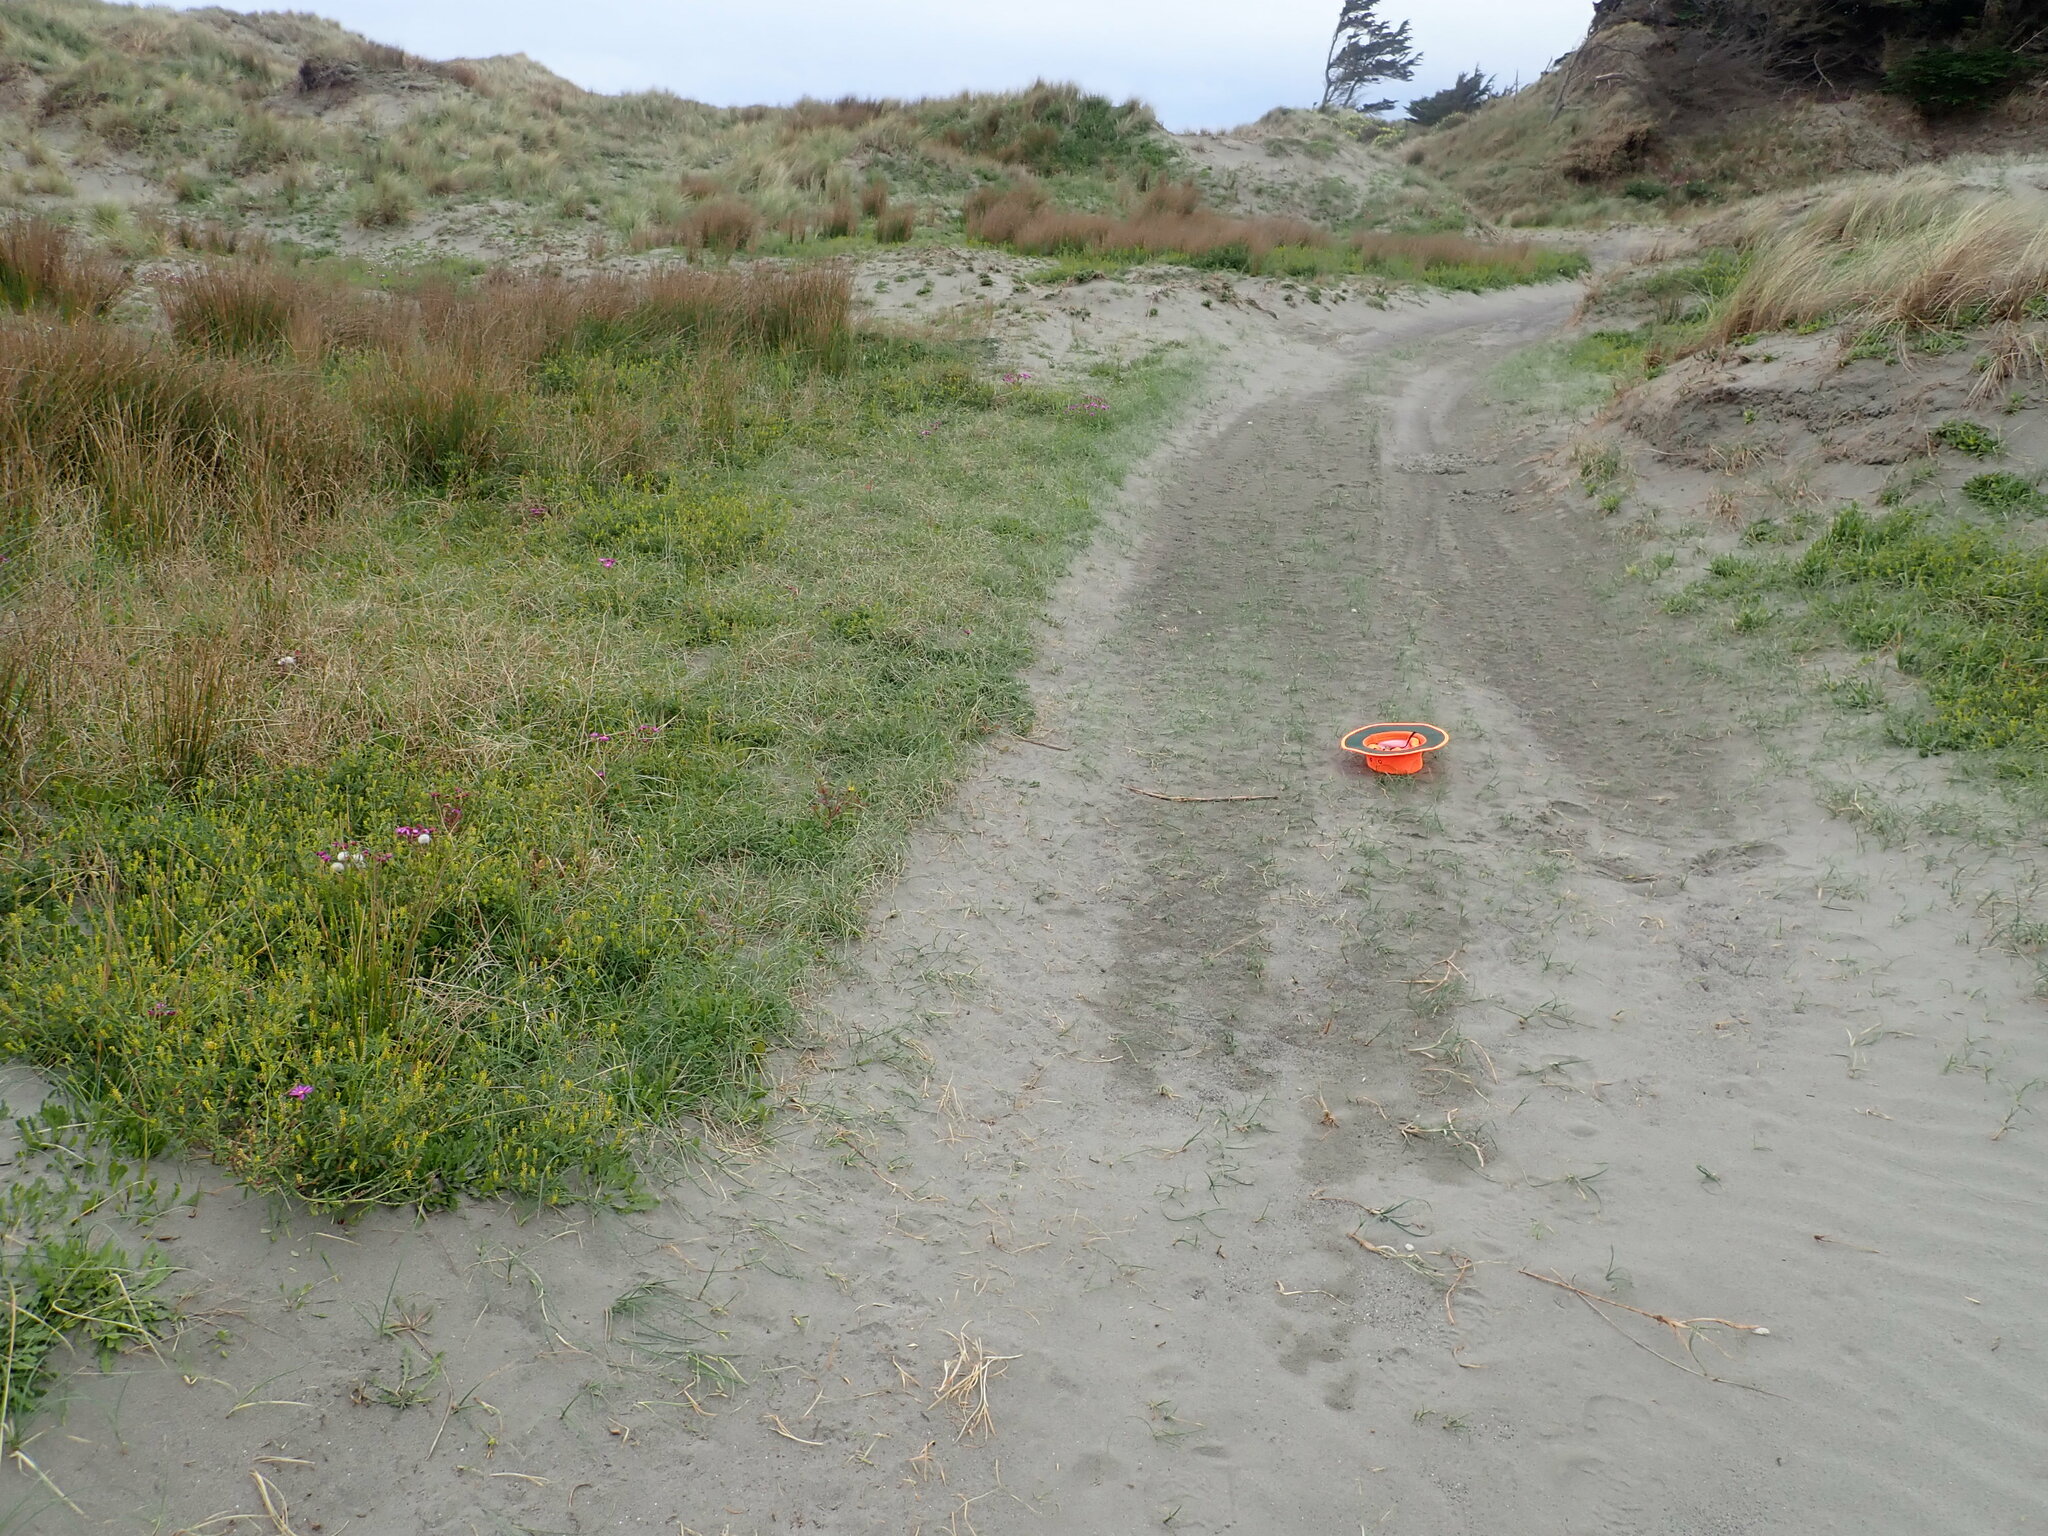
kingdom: Plantae
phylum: Tracheophyta
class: Liliopsida
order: Poales
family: Cyperaceae
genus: Carex
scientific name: Carex pumila
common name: Dwarf sedge
